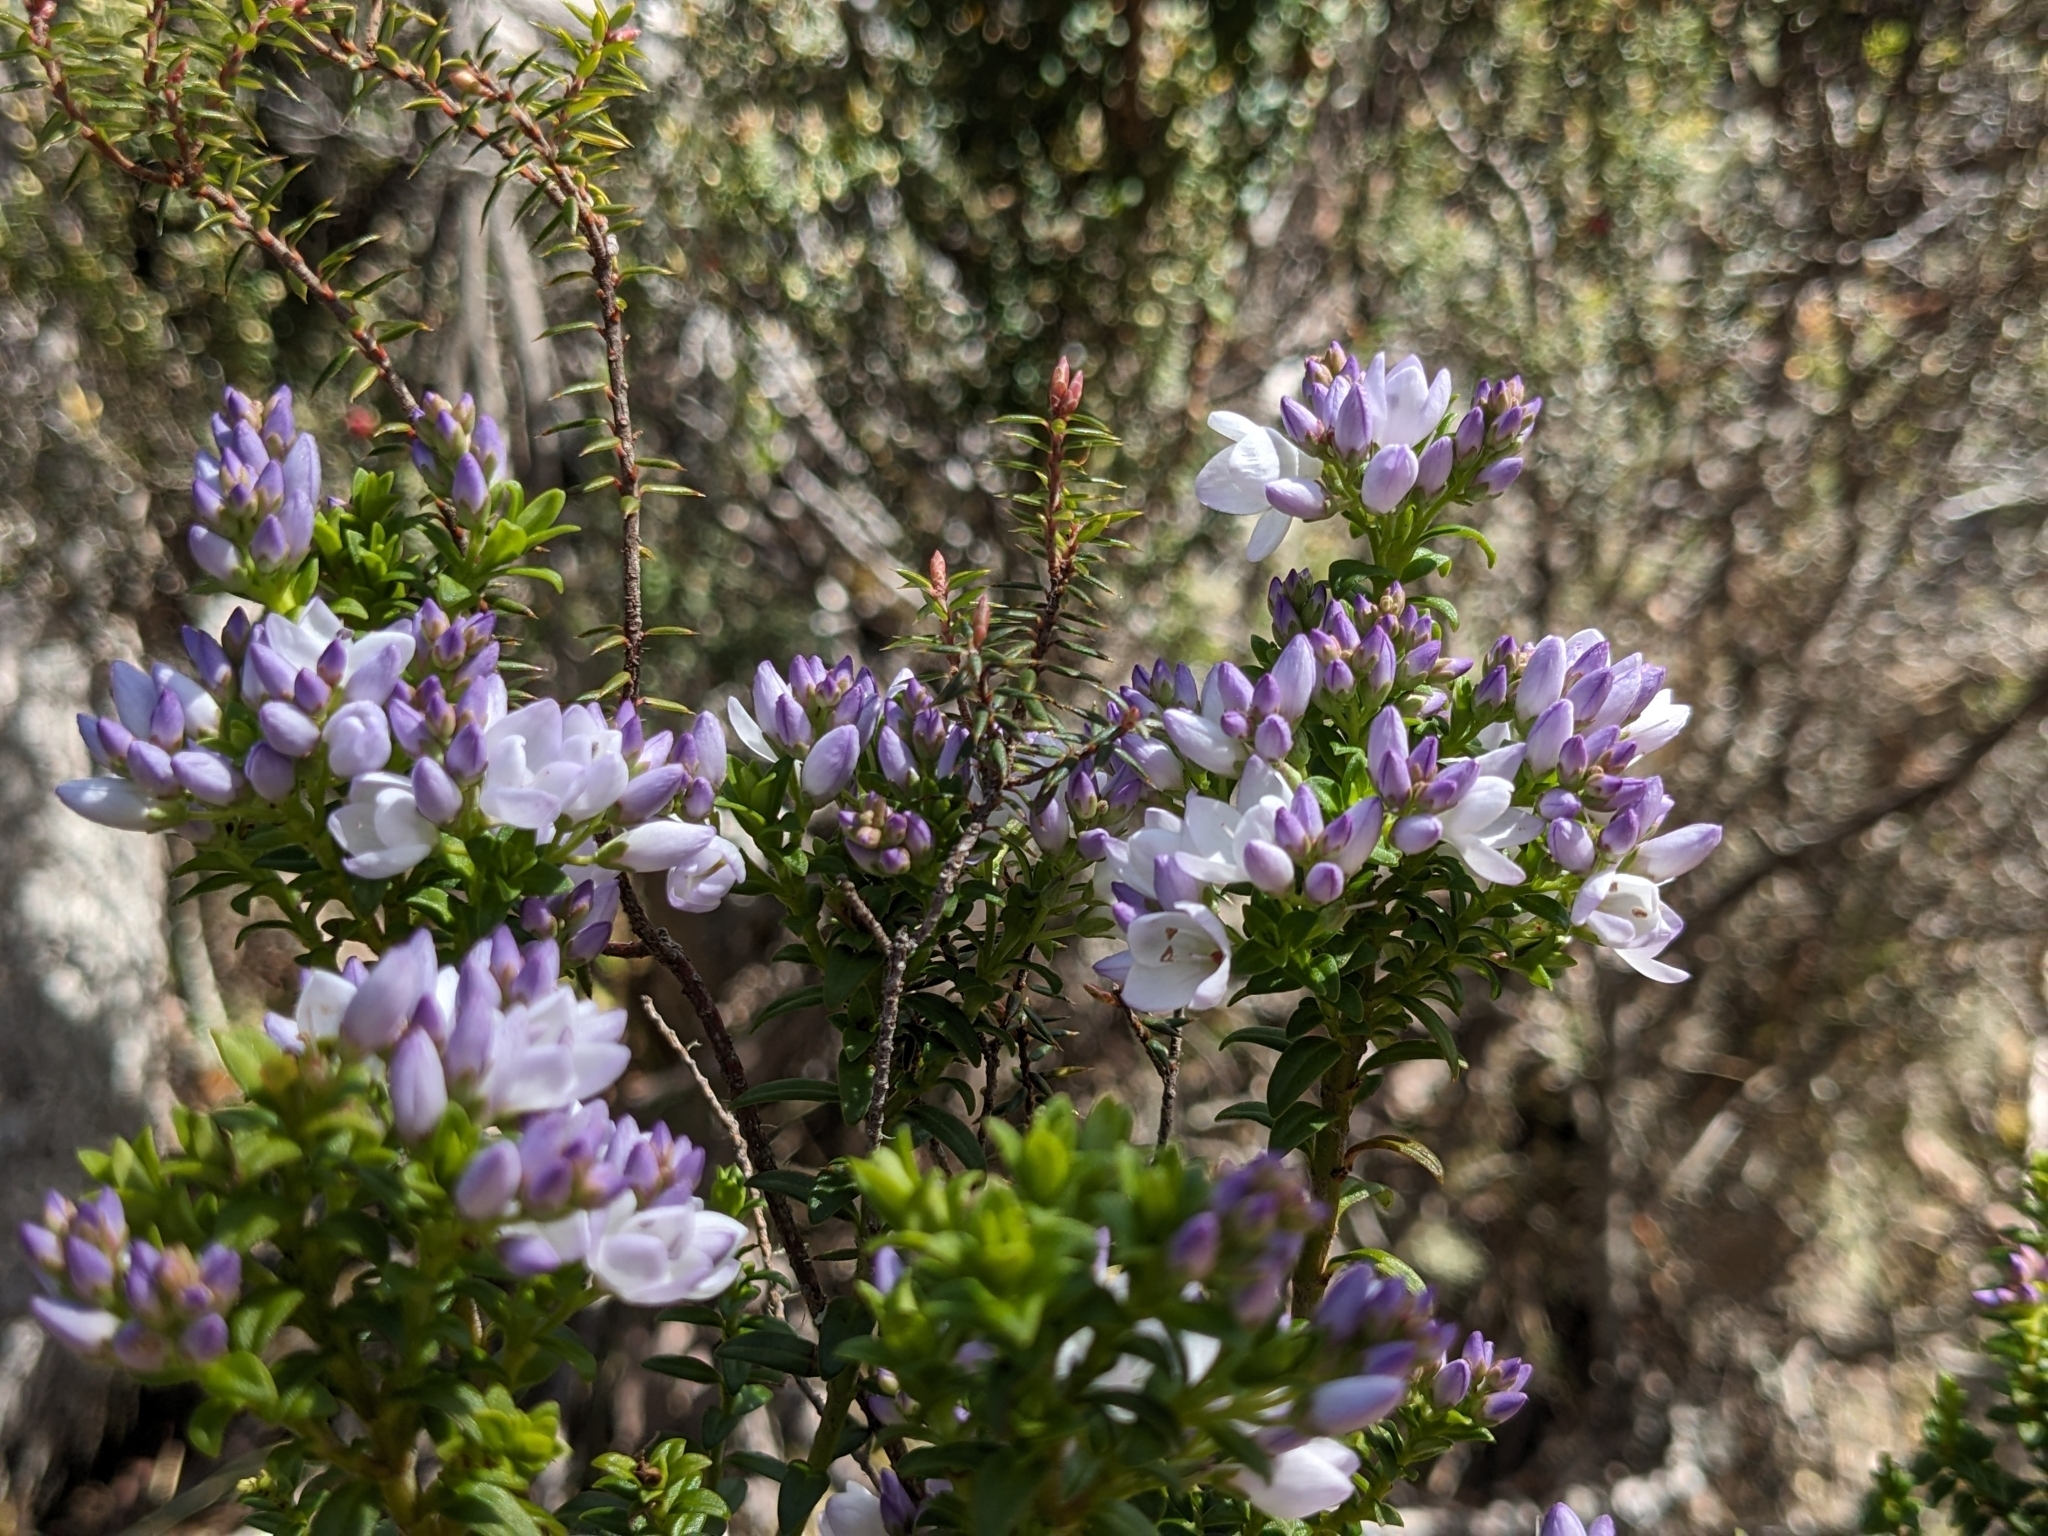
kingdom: Plantae
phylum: Tracheophyta
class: Magnoliopsida
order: Lamiales
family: Plantaginaceae
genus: Veronica
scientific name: Veronica formosa
